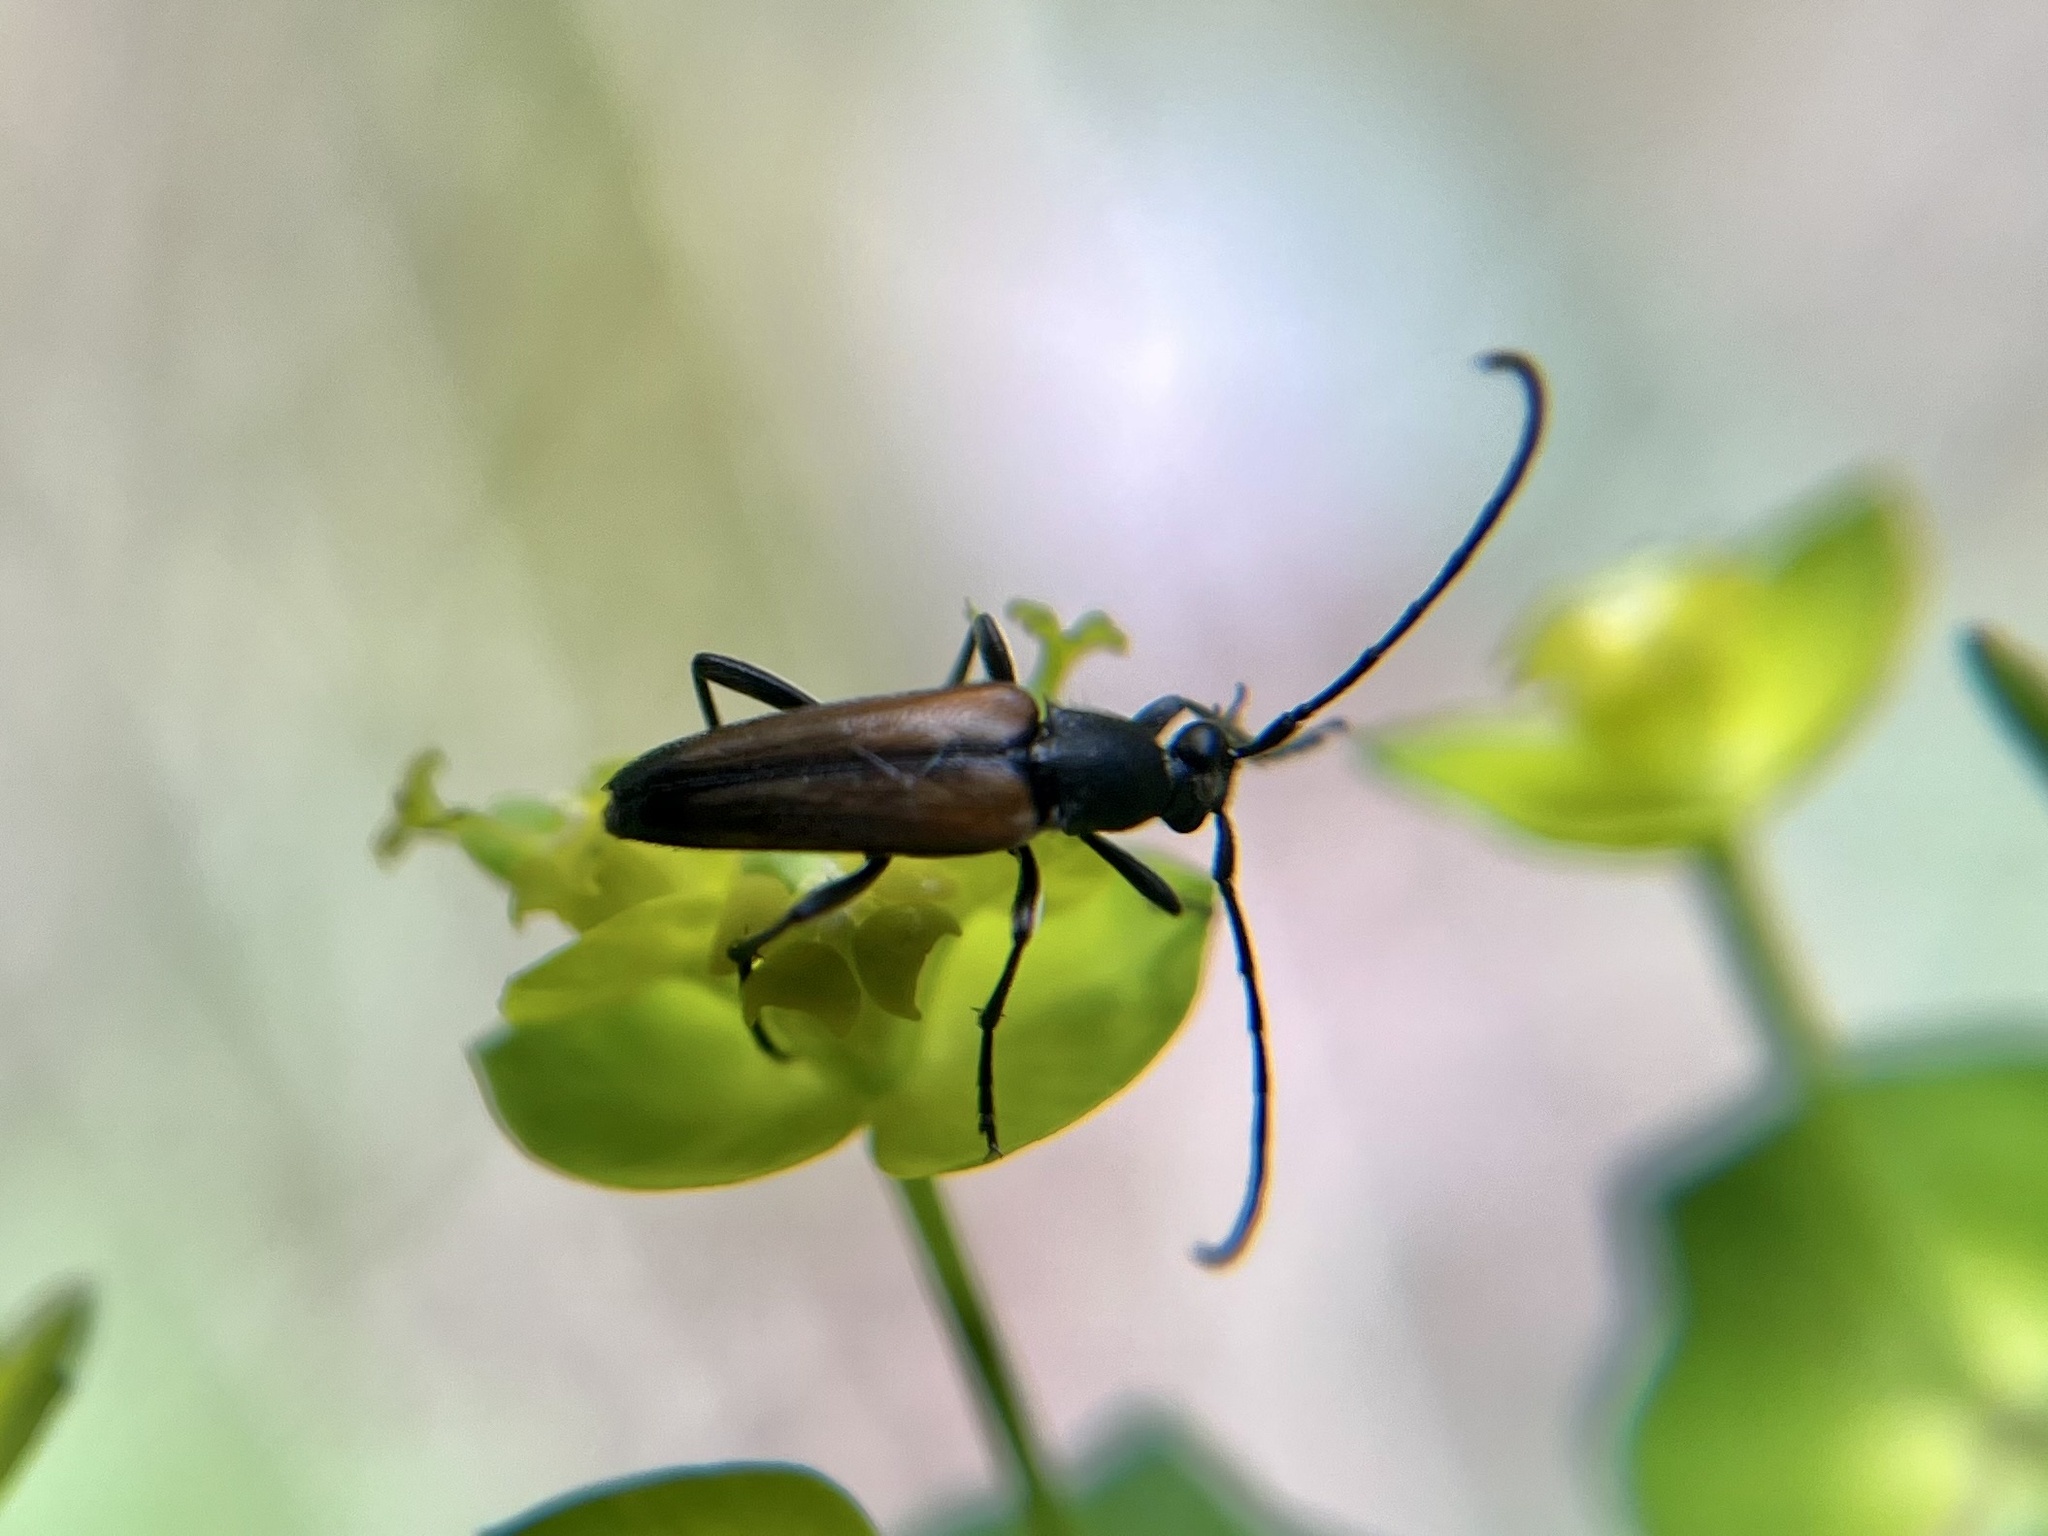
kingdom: Animalia
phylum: Arthropoda
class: Insecta
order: Coleoptera
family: Cerambycidae
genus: Stenurella
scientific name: Stenurella melanura
